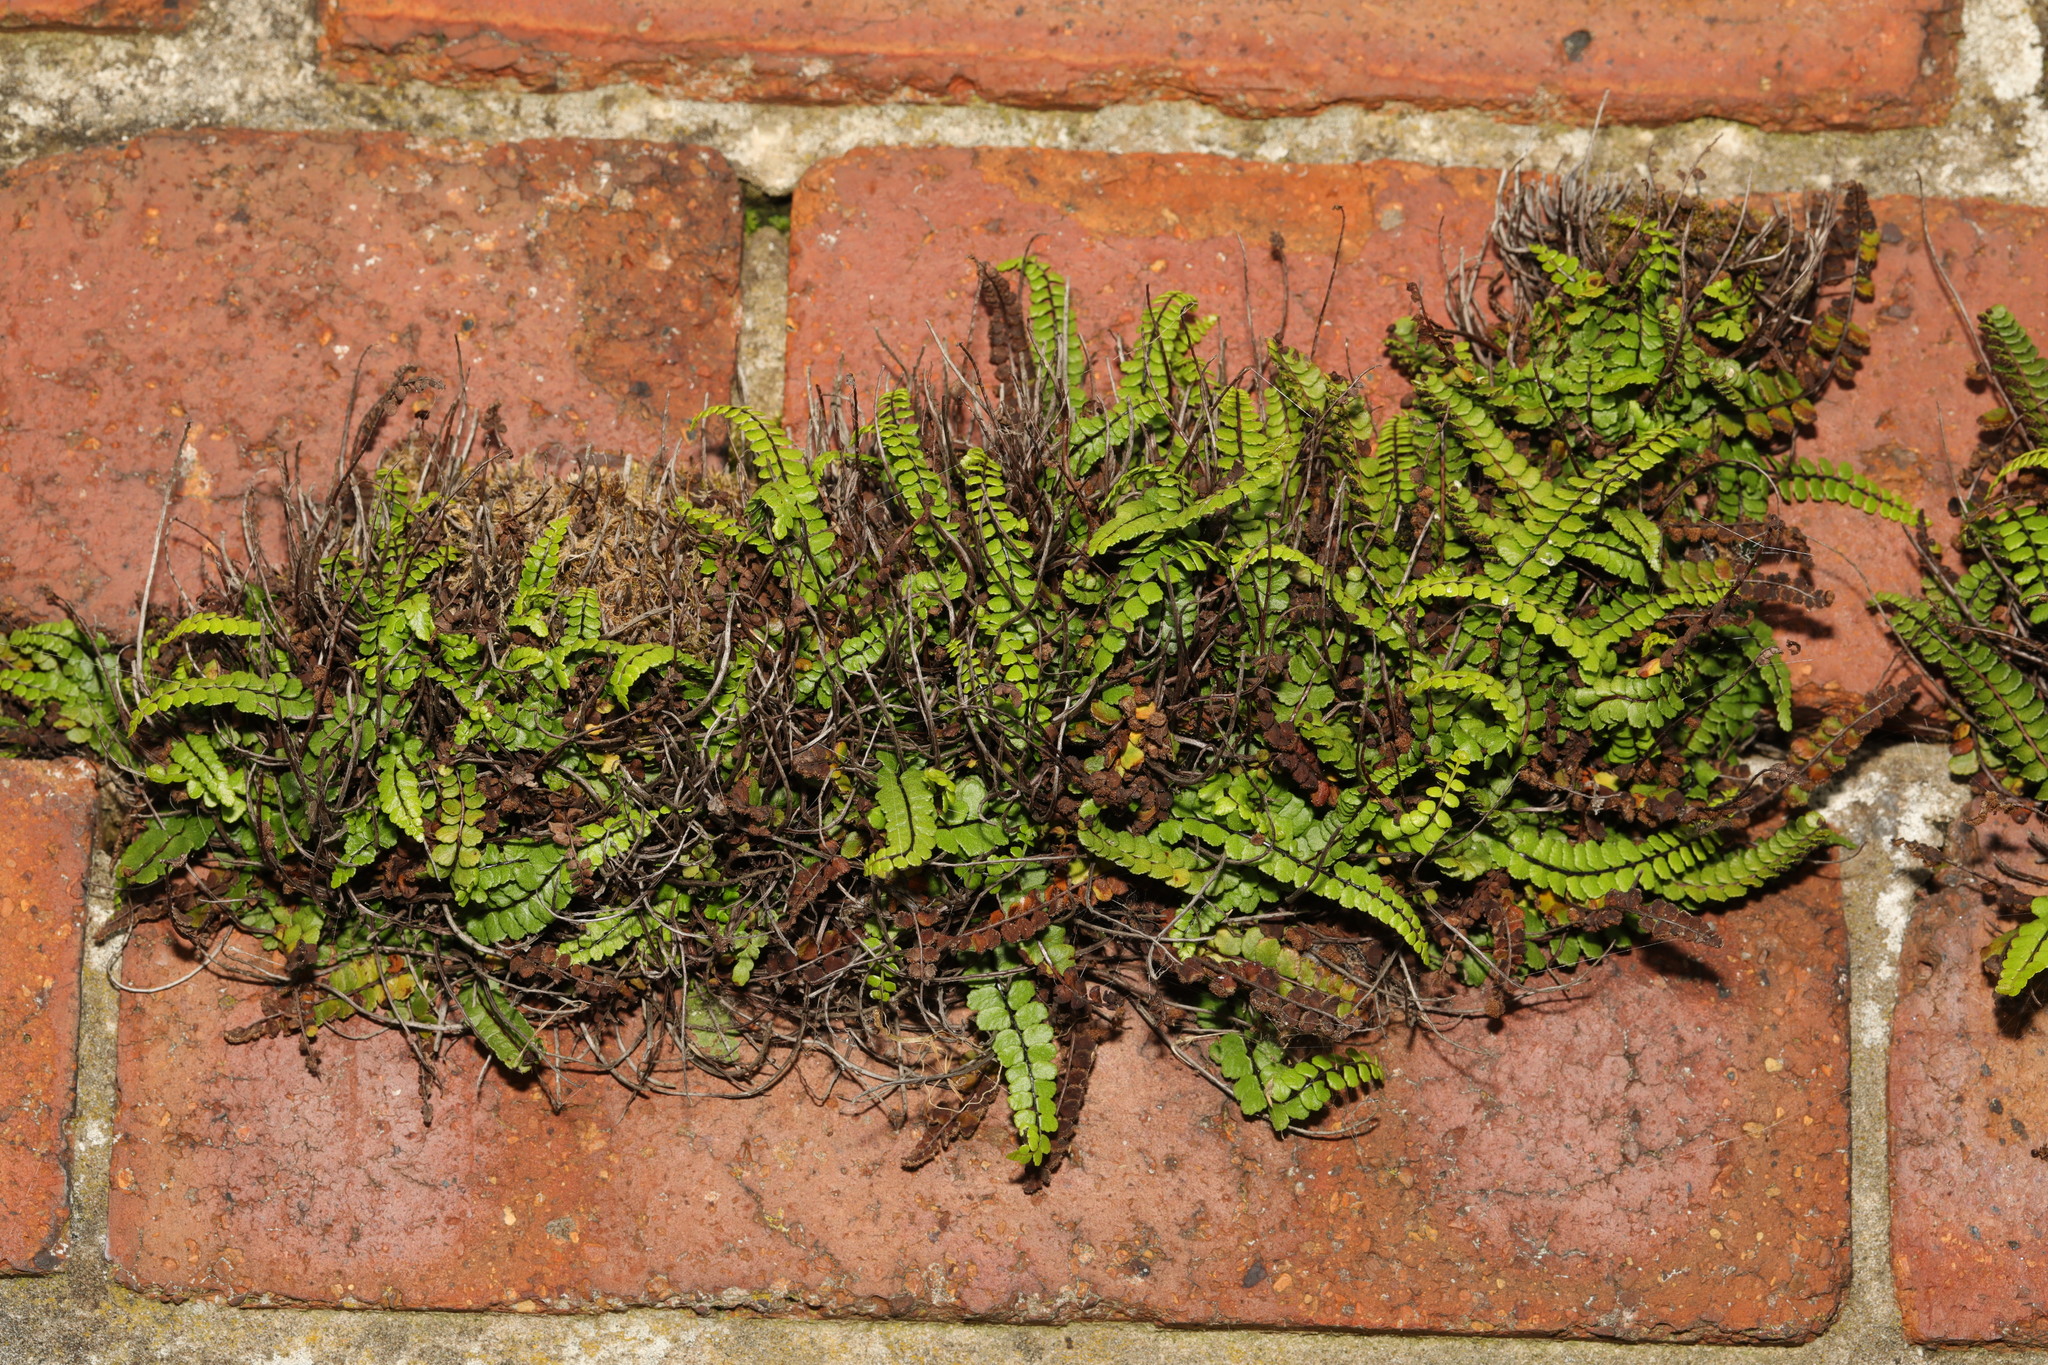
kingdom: Plantae
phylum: Tracheophyta
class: Polypodiopsida
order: Polypodiales
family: Aspleniaceae
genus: Asplenium
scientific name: Asplenium trichomanes
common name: Maidenhair spleenwort
